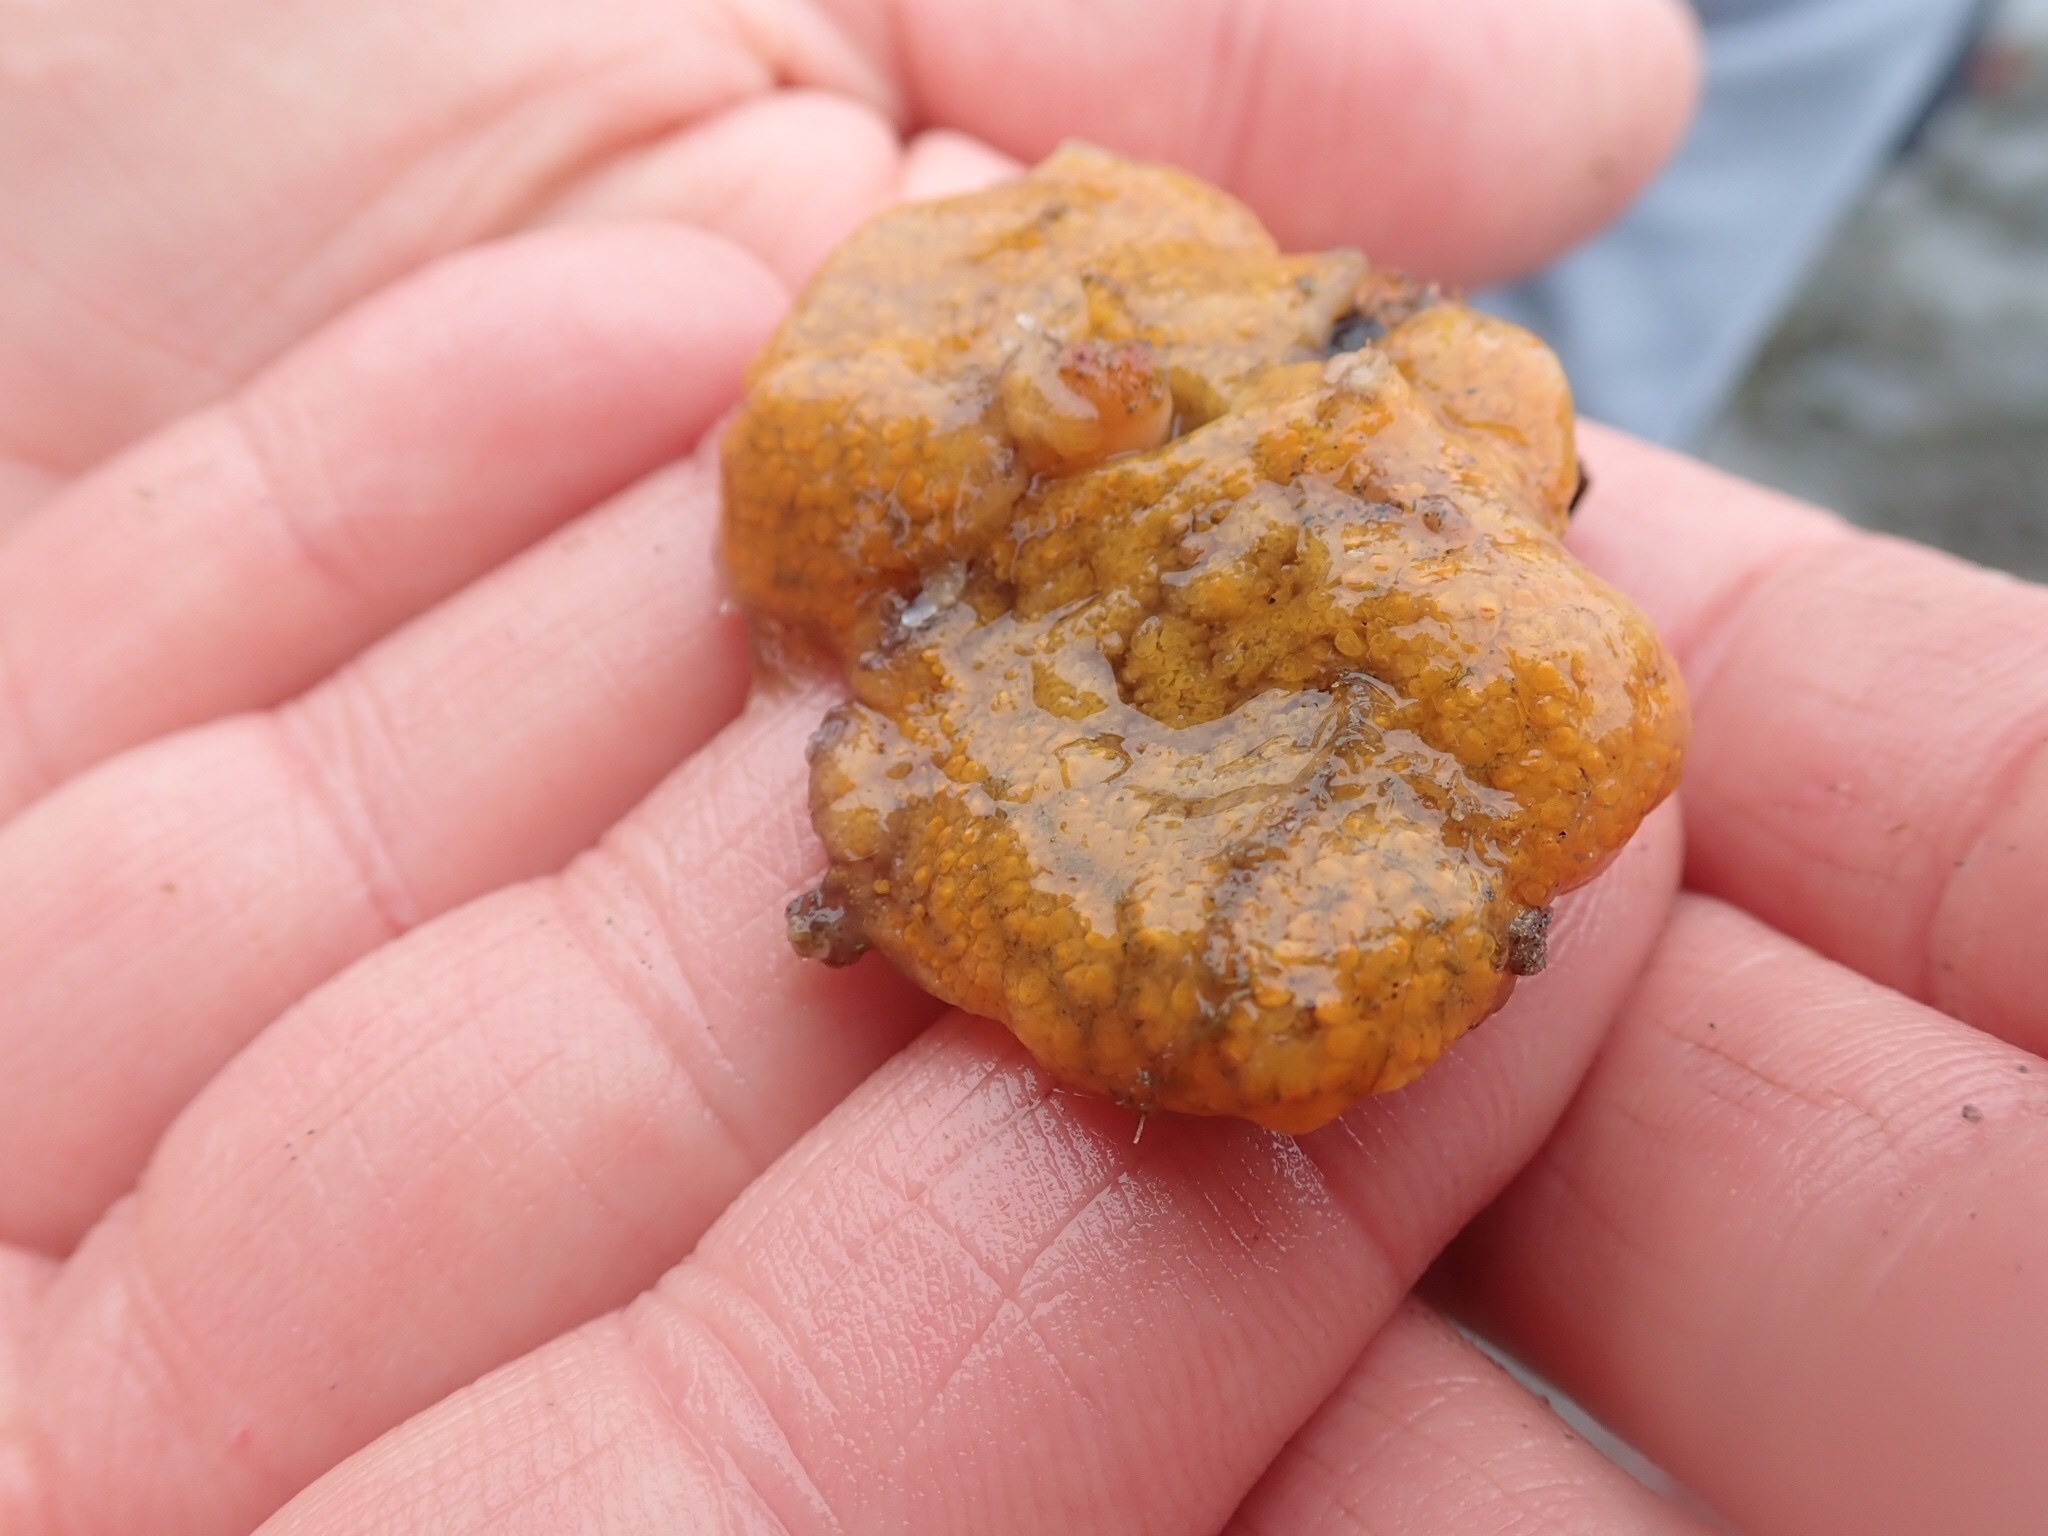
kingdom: Animalia
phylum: Chordata
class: Ascidiacea
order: Stolidobranchia
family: Styelidae
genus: Botrylloides
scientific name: Botrylloides violaceus
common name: Colonial sea squirt
